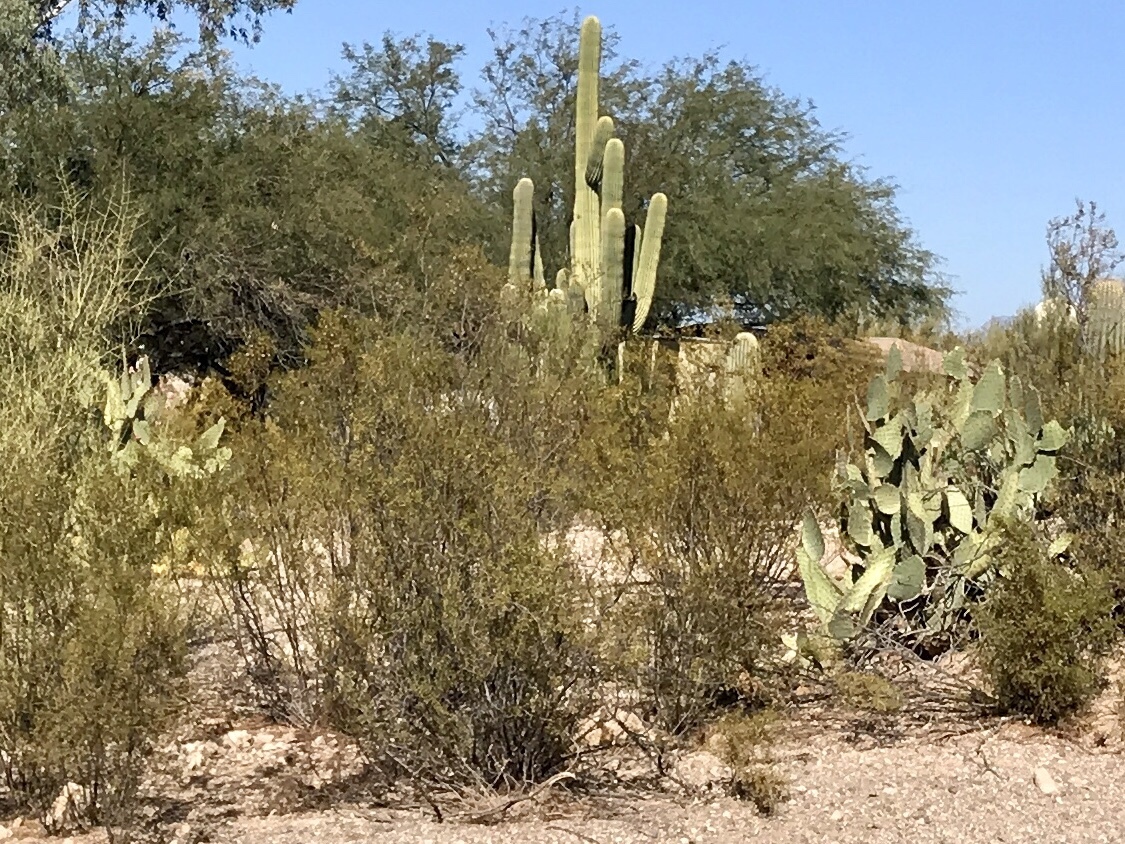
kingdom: Plantae
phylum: Tracheophyta
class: Magnoliopsida
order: Zygophyllales
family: Zygophyllaceae
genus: Larrea
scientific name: Larrea tridentata
